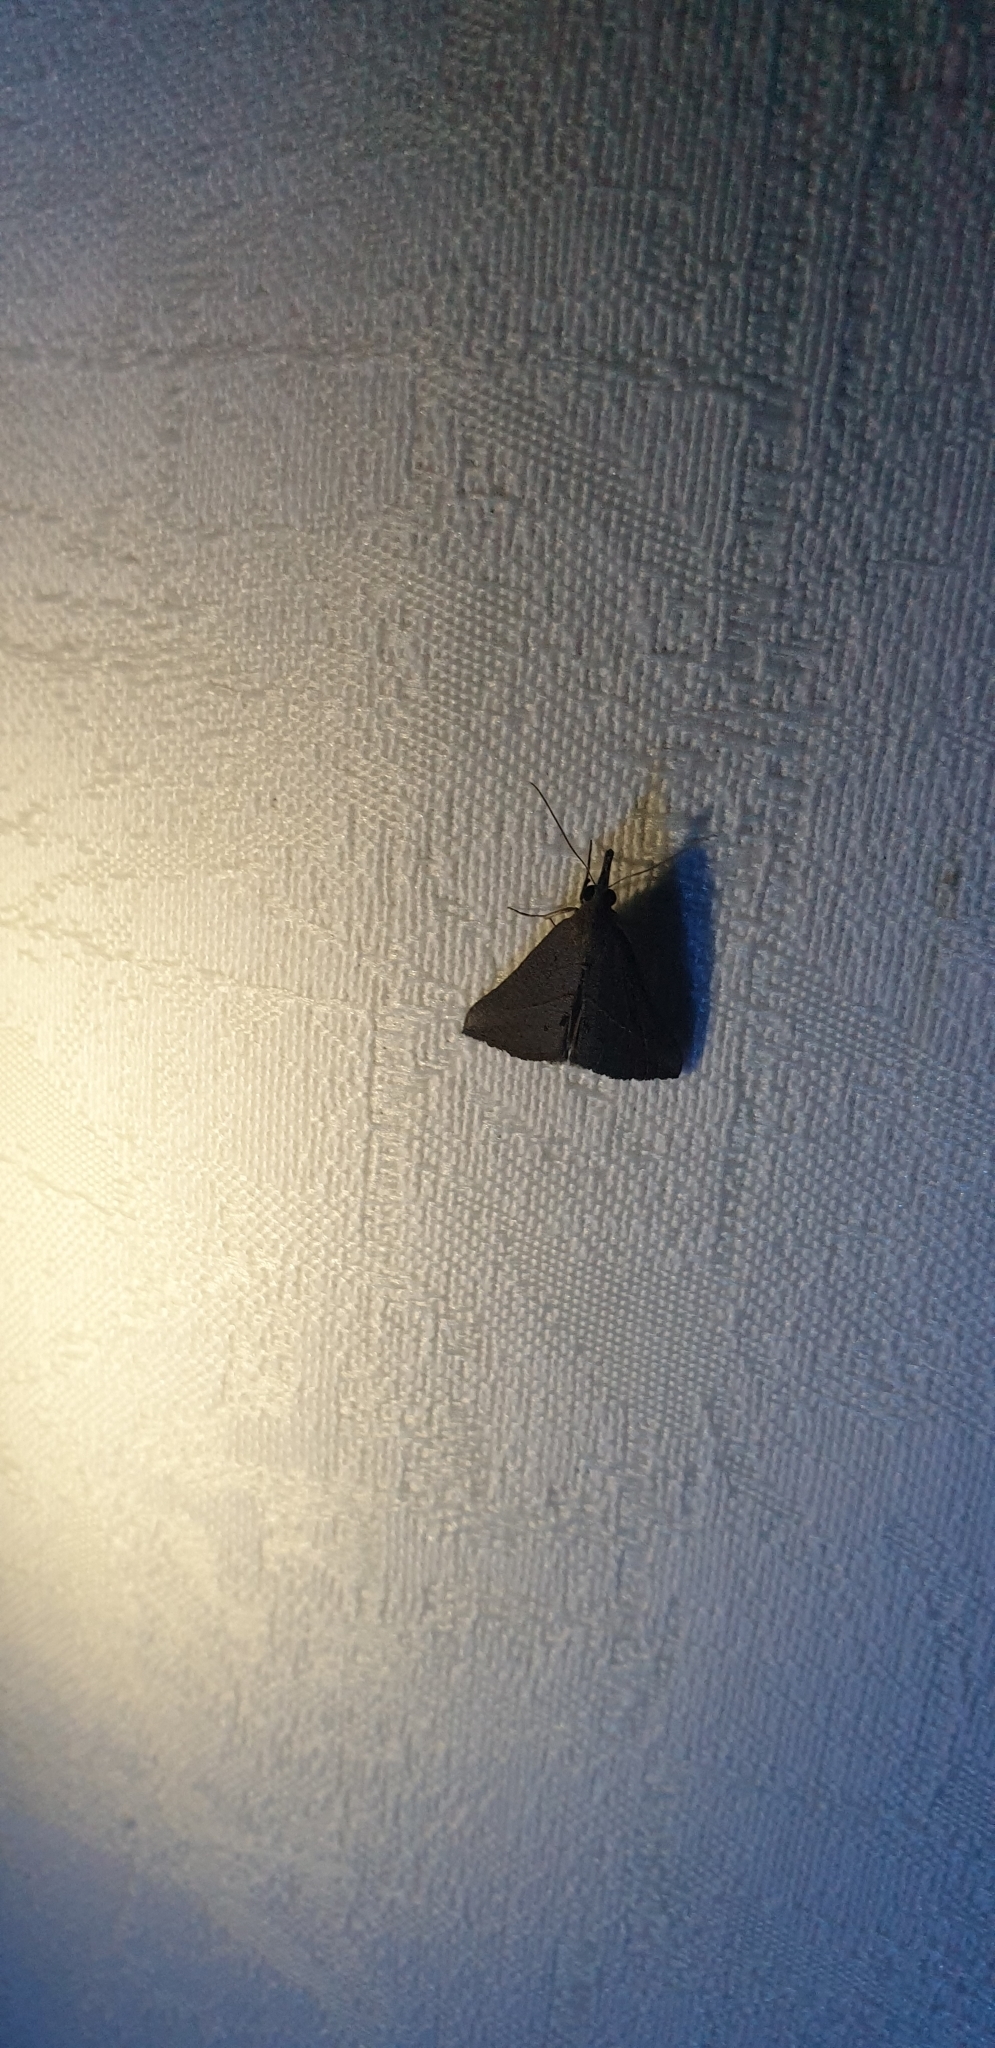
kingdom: Animalia
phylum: Arthropoda
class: Insecta
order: Lepidoptera
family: Erebidae
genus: Hypena
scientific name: Hypena lividalis
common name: Chevron snout
